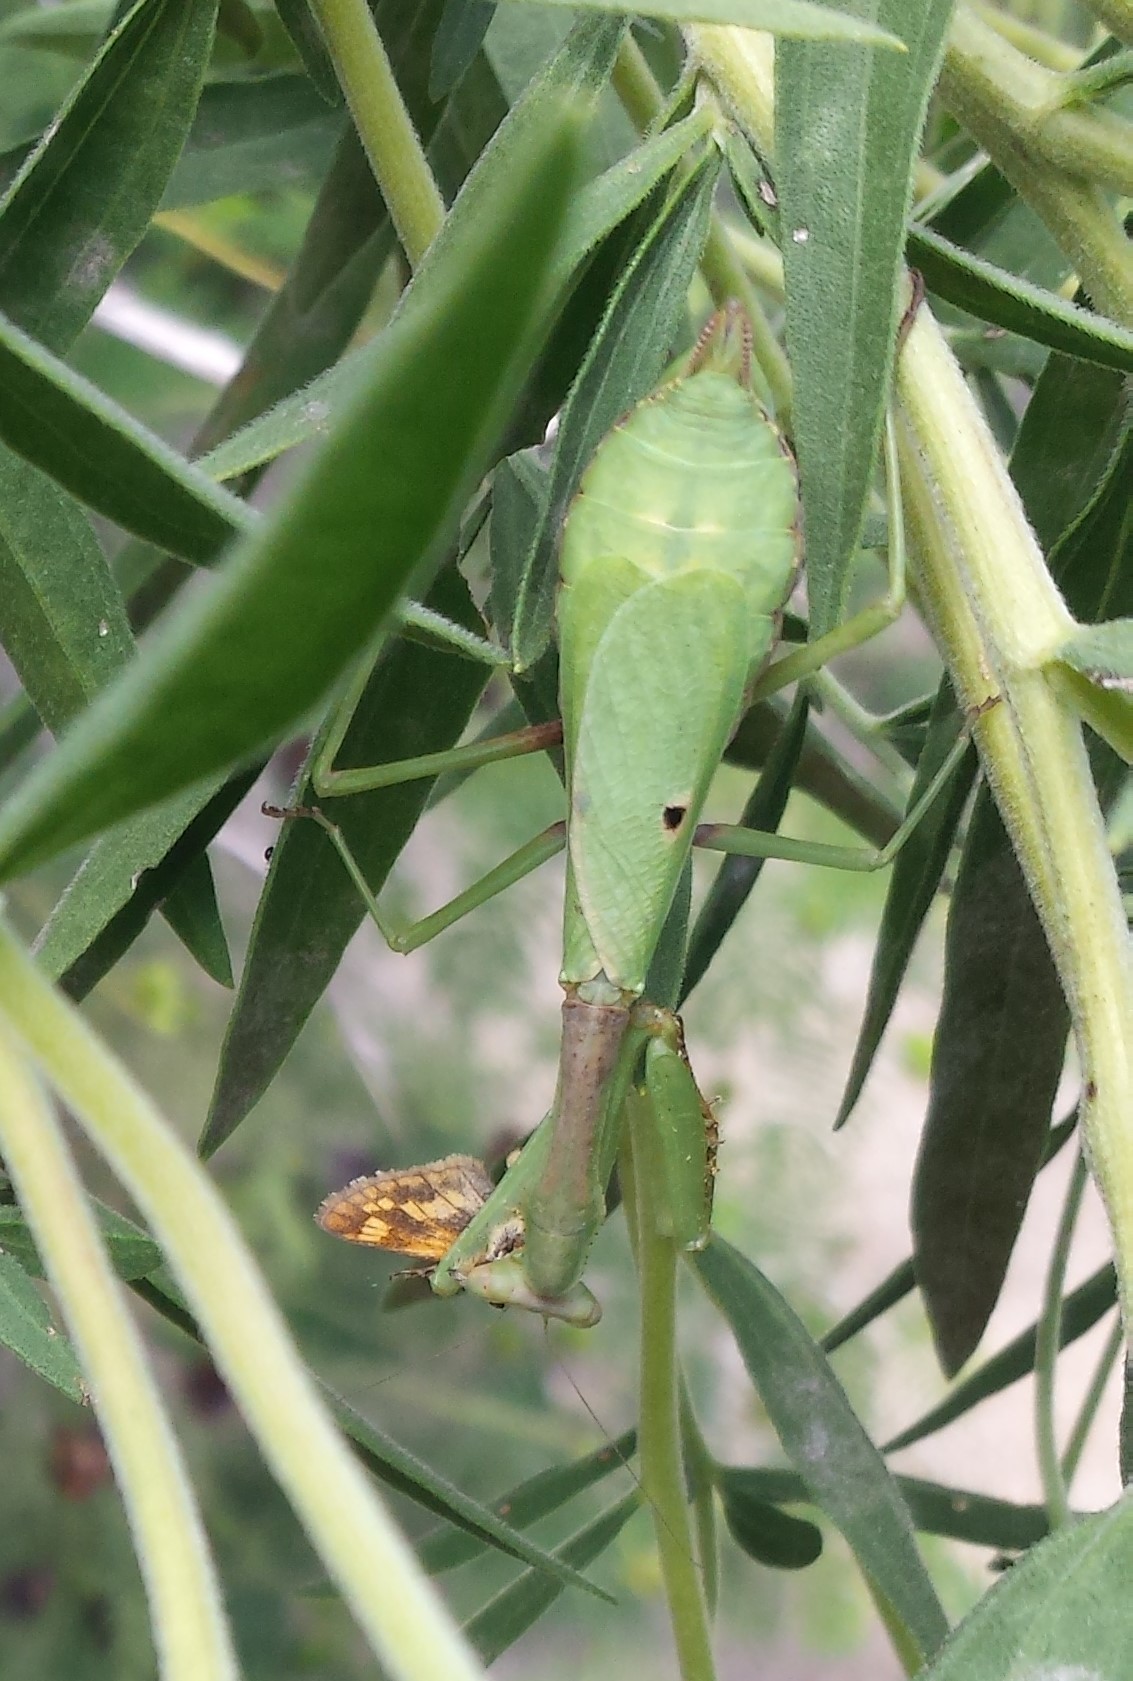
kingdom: Animalia
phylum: Arthropoda
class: Insecta
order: Mantodea
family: Mantidae
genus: Stagmomantis
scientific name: Stagmomantis carolina
